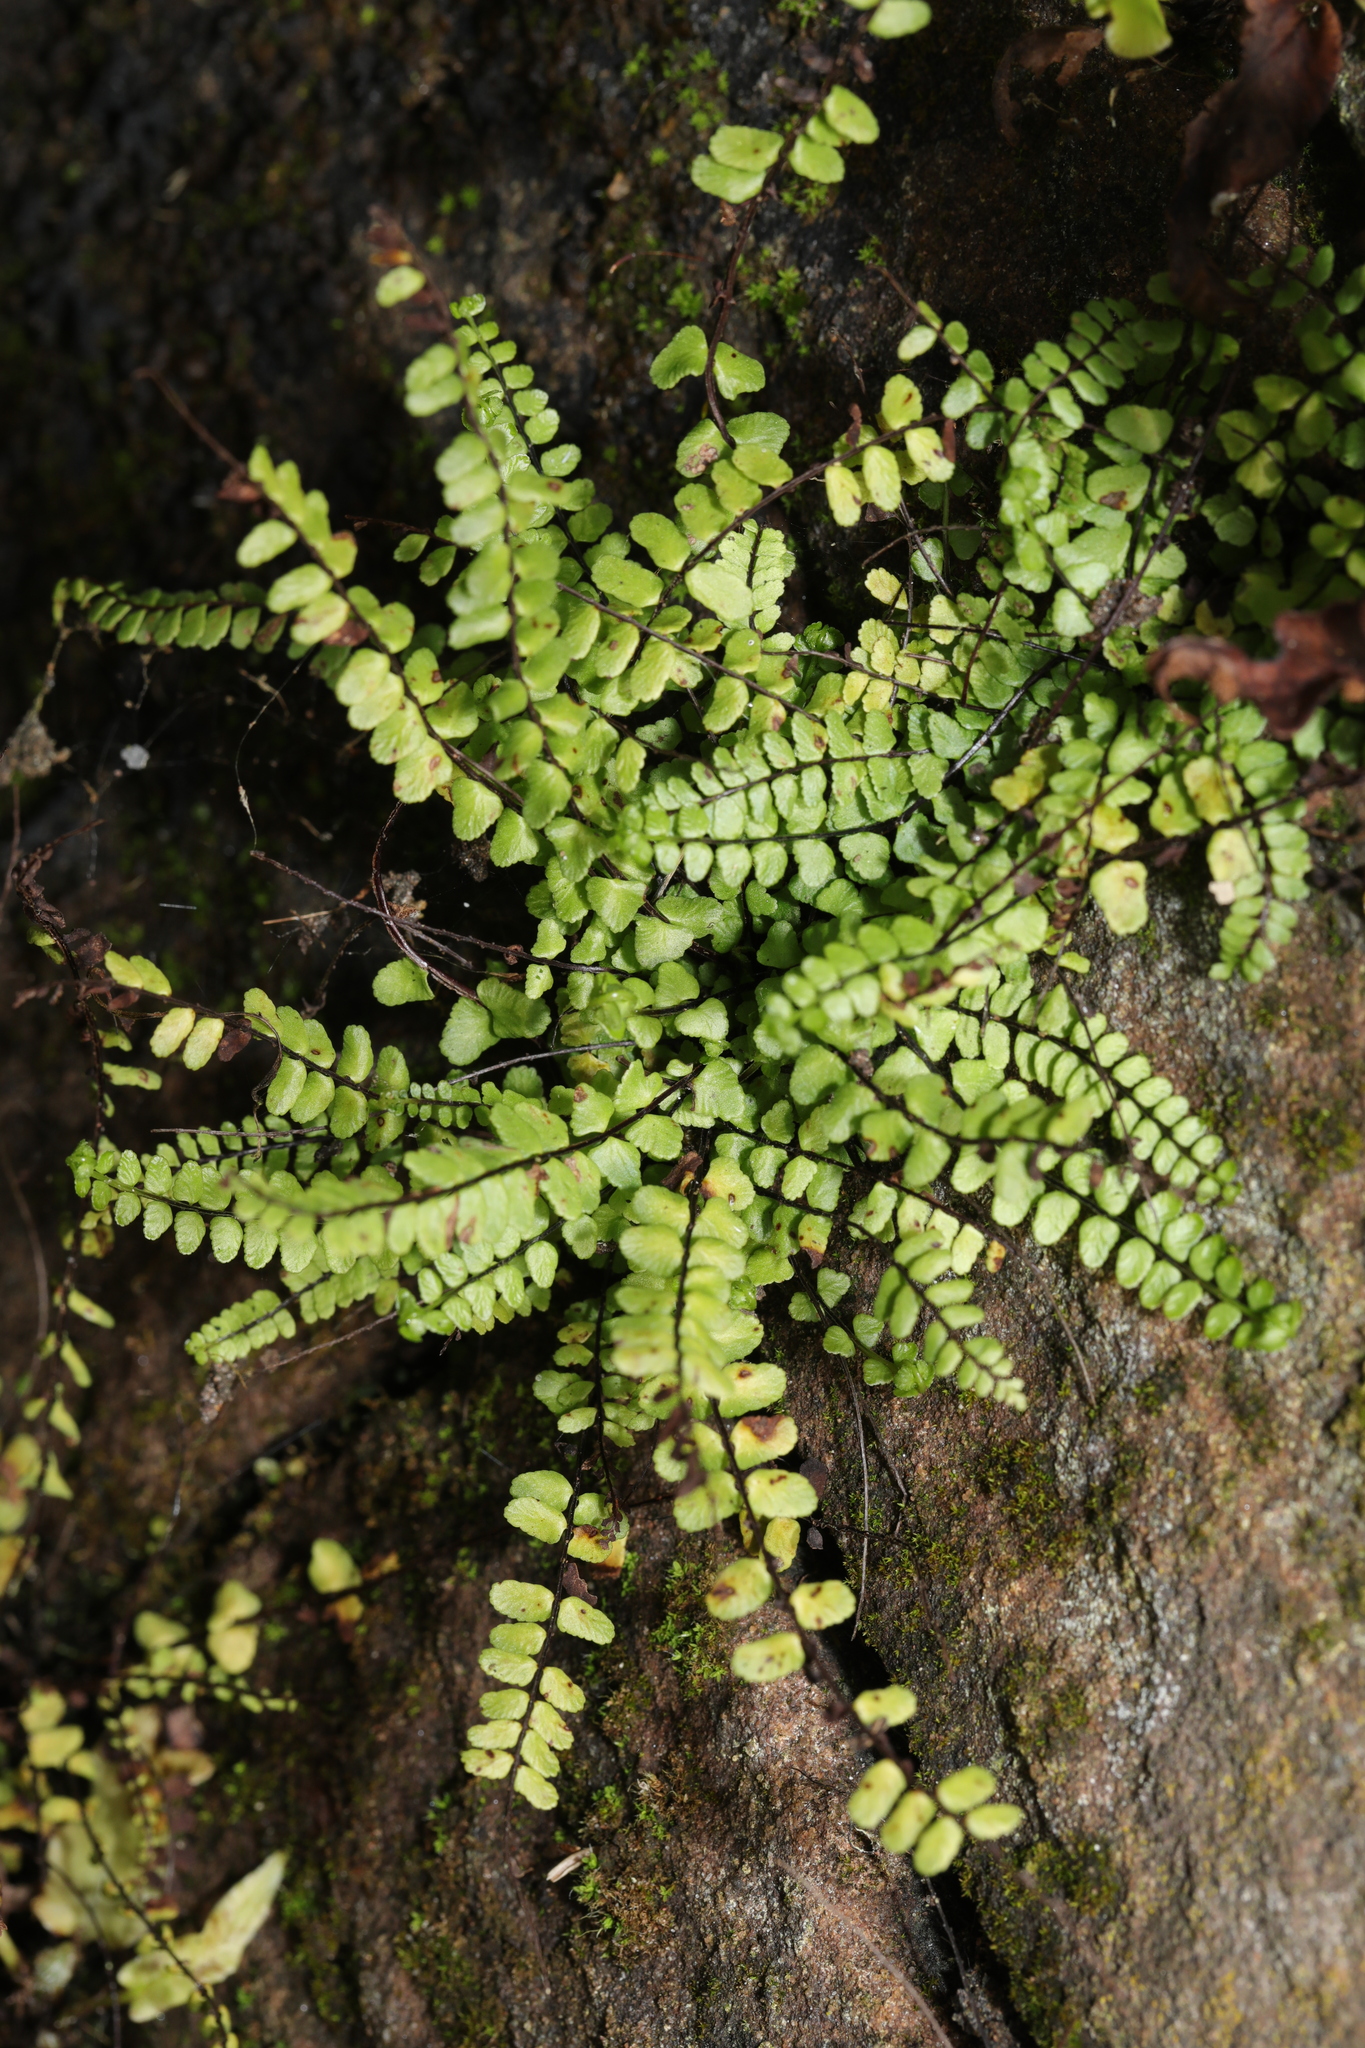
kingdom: Plantae
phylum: Tracheophyta
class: Polypodiopsida
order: Polypodiales
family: Aspleniaceae
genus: Asplenium
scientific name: Asplenium trichomanes
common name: Maidenhair spleenwort
